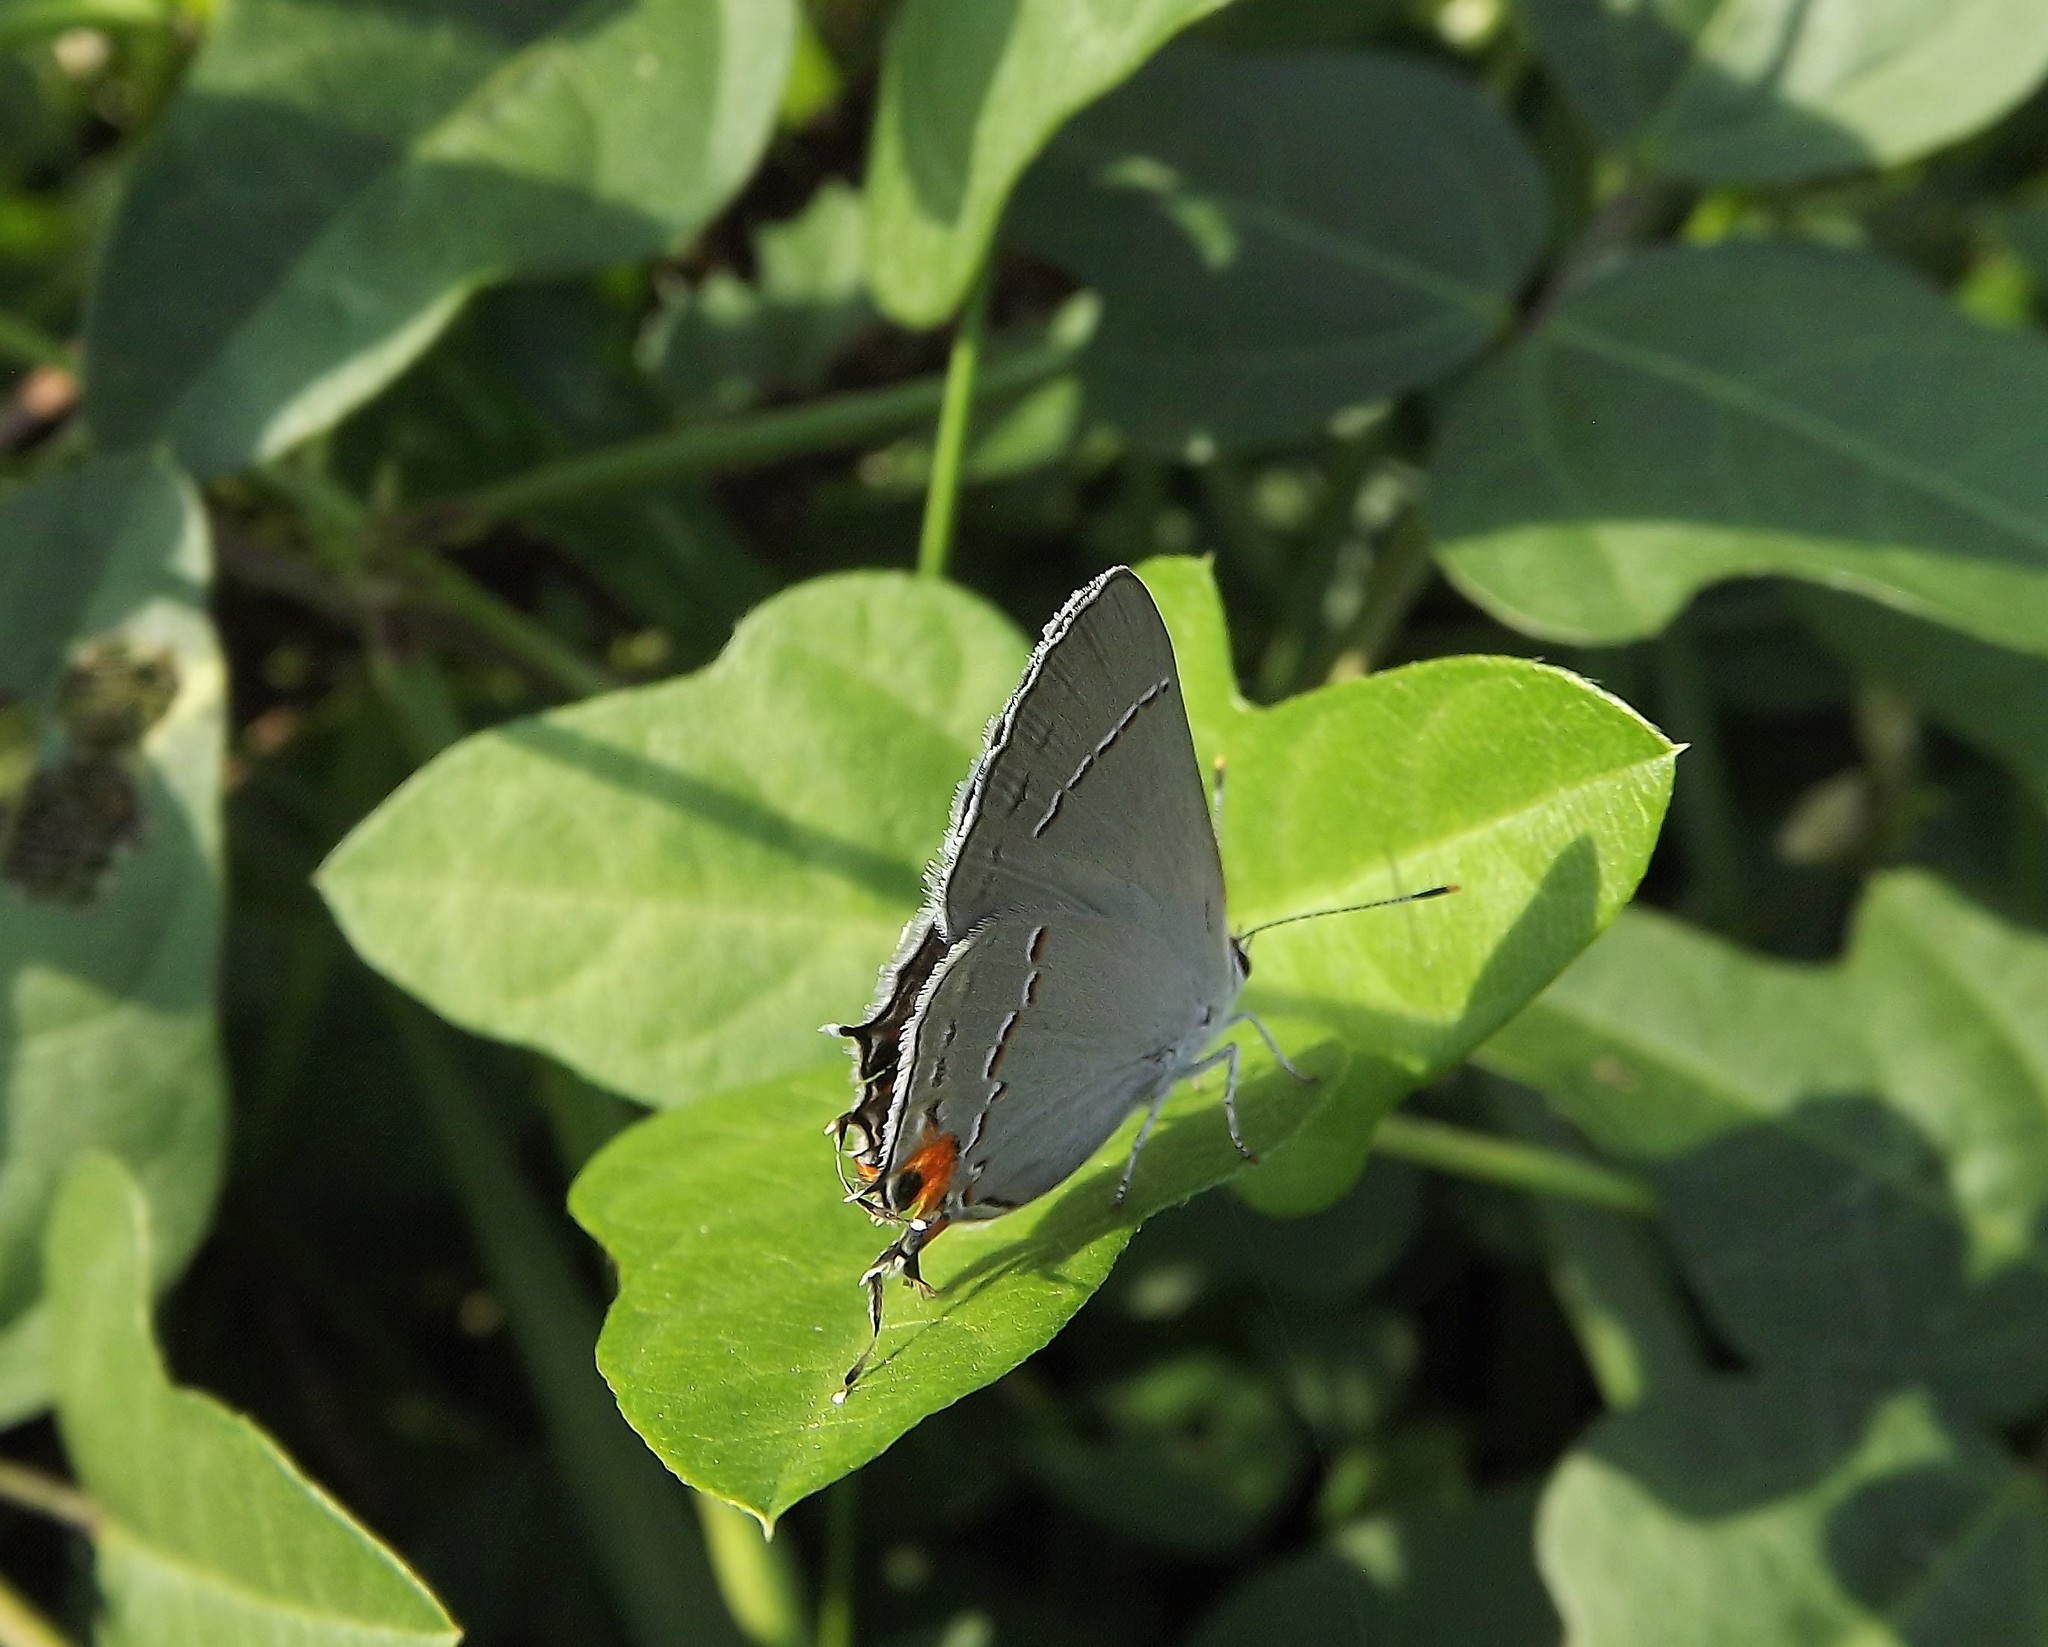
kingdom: Animalia
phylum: Arthropoda
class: Insecta
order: Lepidoptera
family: Lycaenidae
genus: Strymon
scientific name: Strymon melinus
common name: Gray hairstreak
